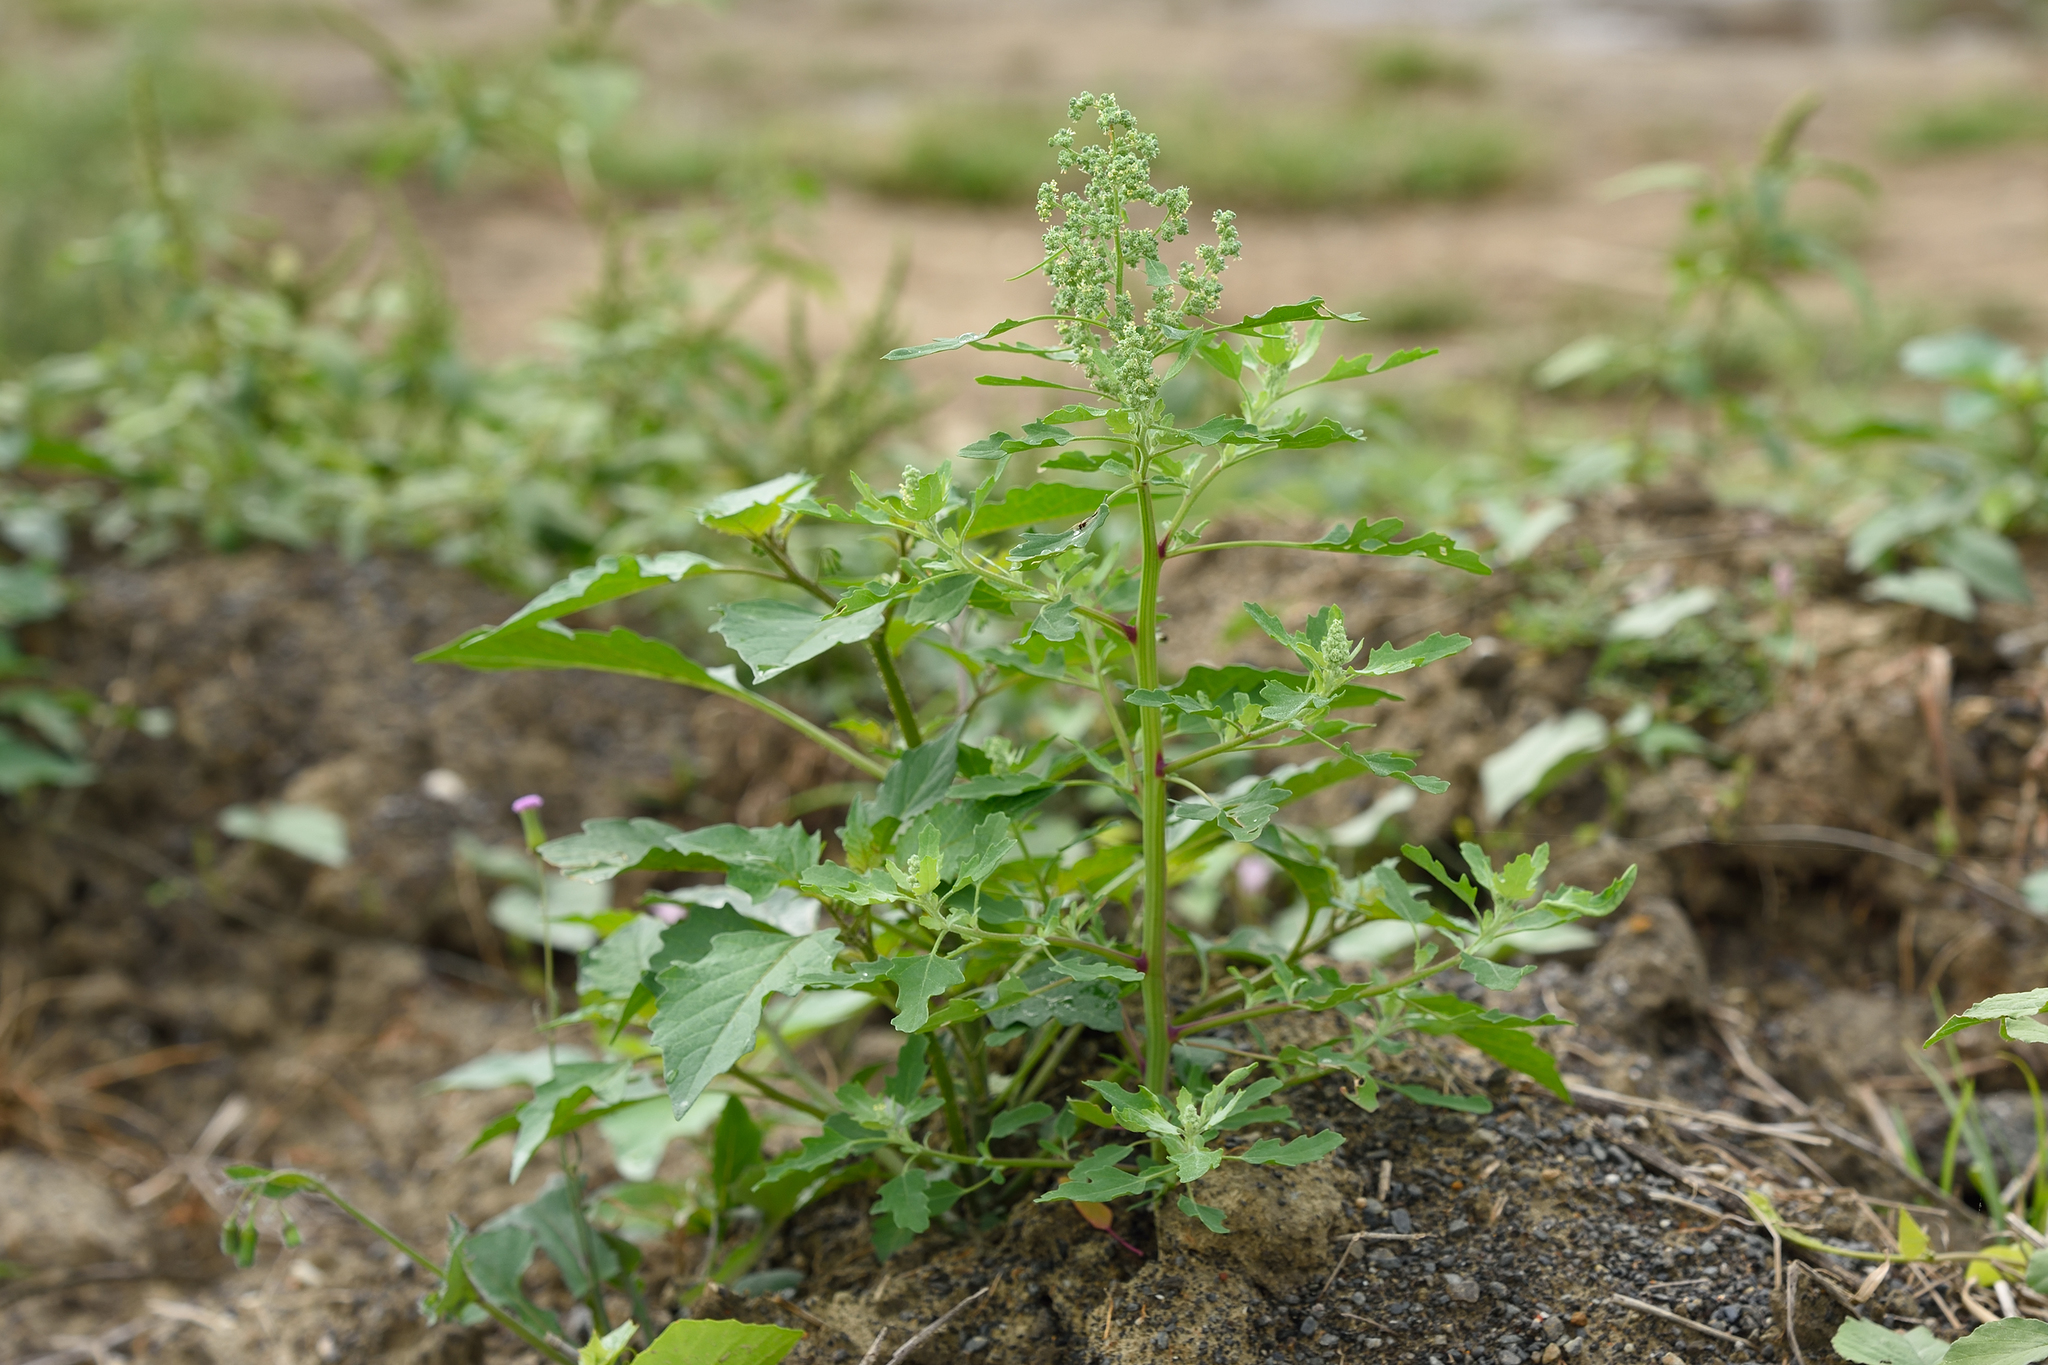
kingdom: Plantae
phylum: Tracheophyta
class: Magnoliopsida
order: Caryophyllales
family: Amaranthaceae
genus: Chenopodium
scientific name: Chenopodium ficifolium
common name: Fig-leaved goosefoot
